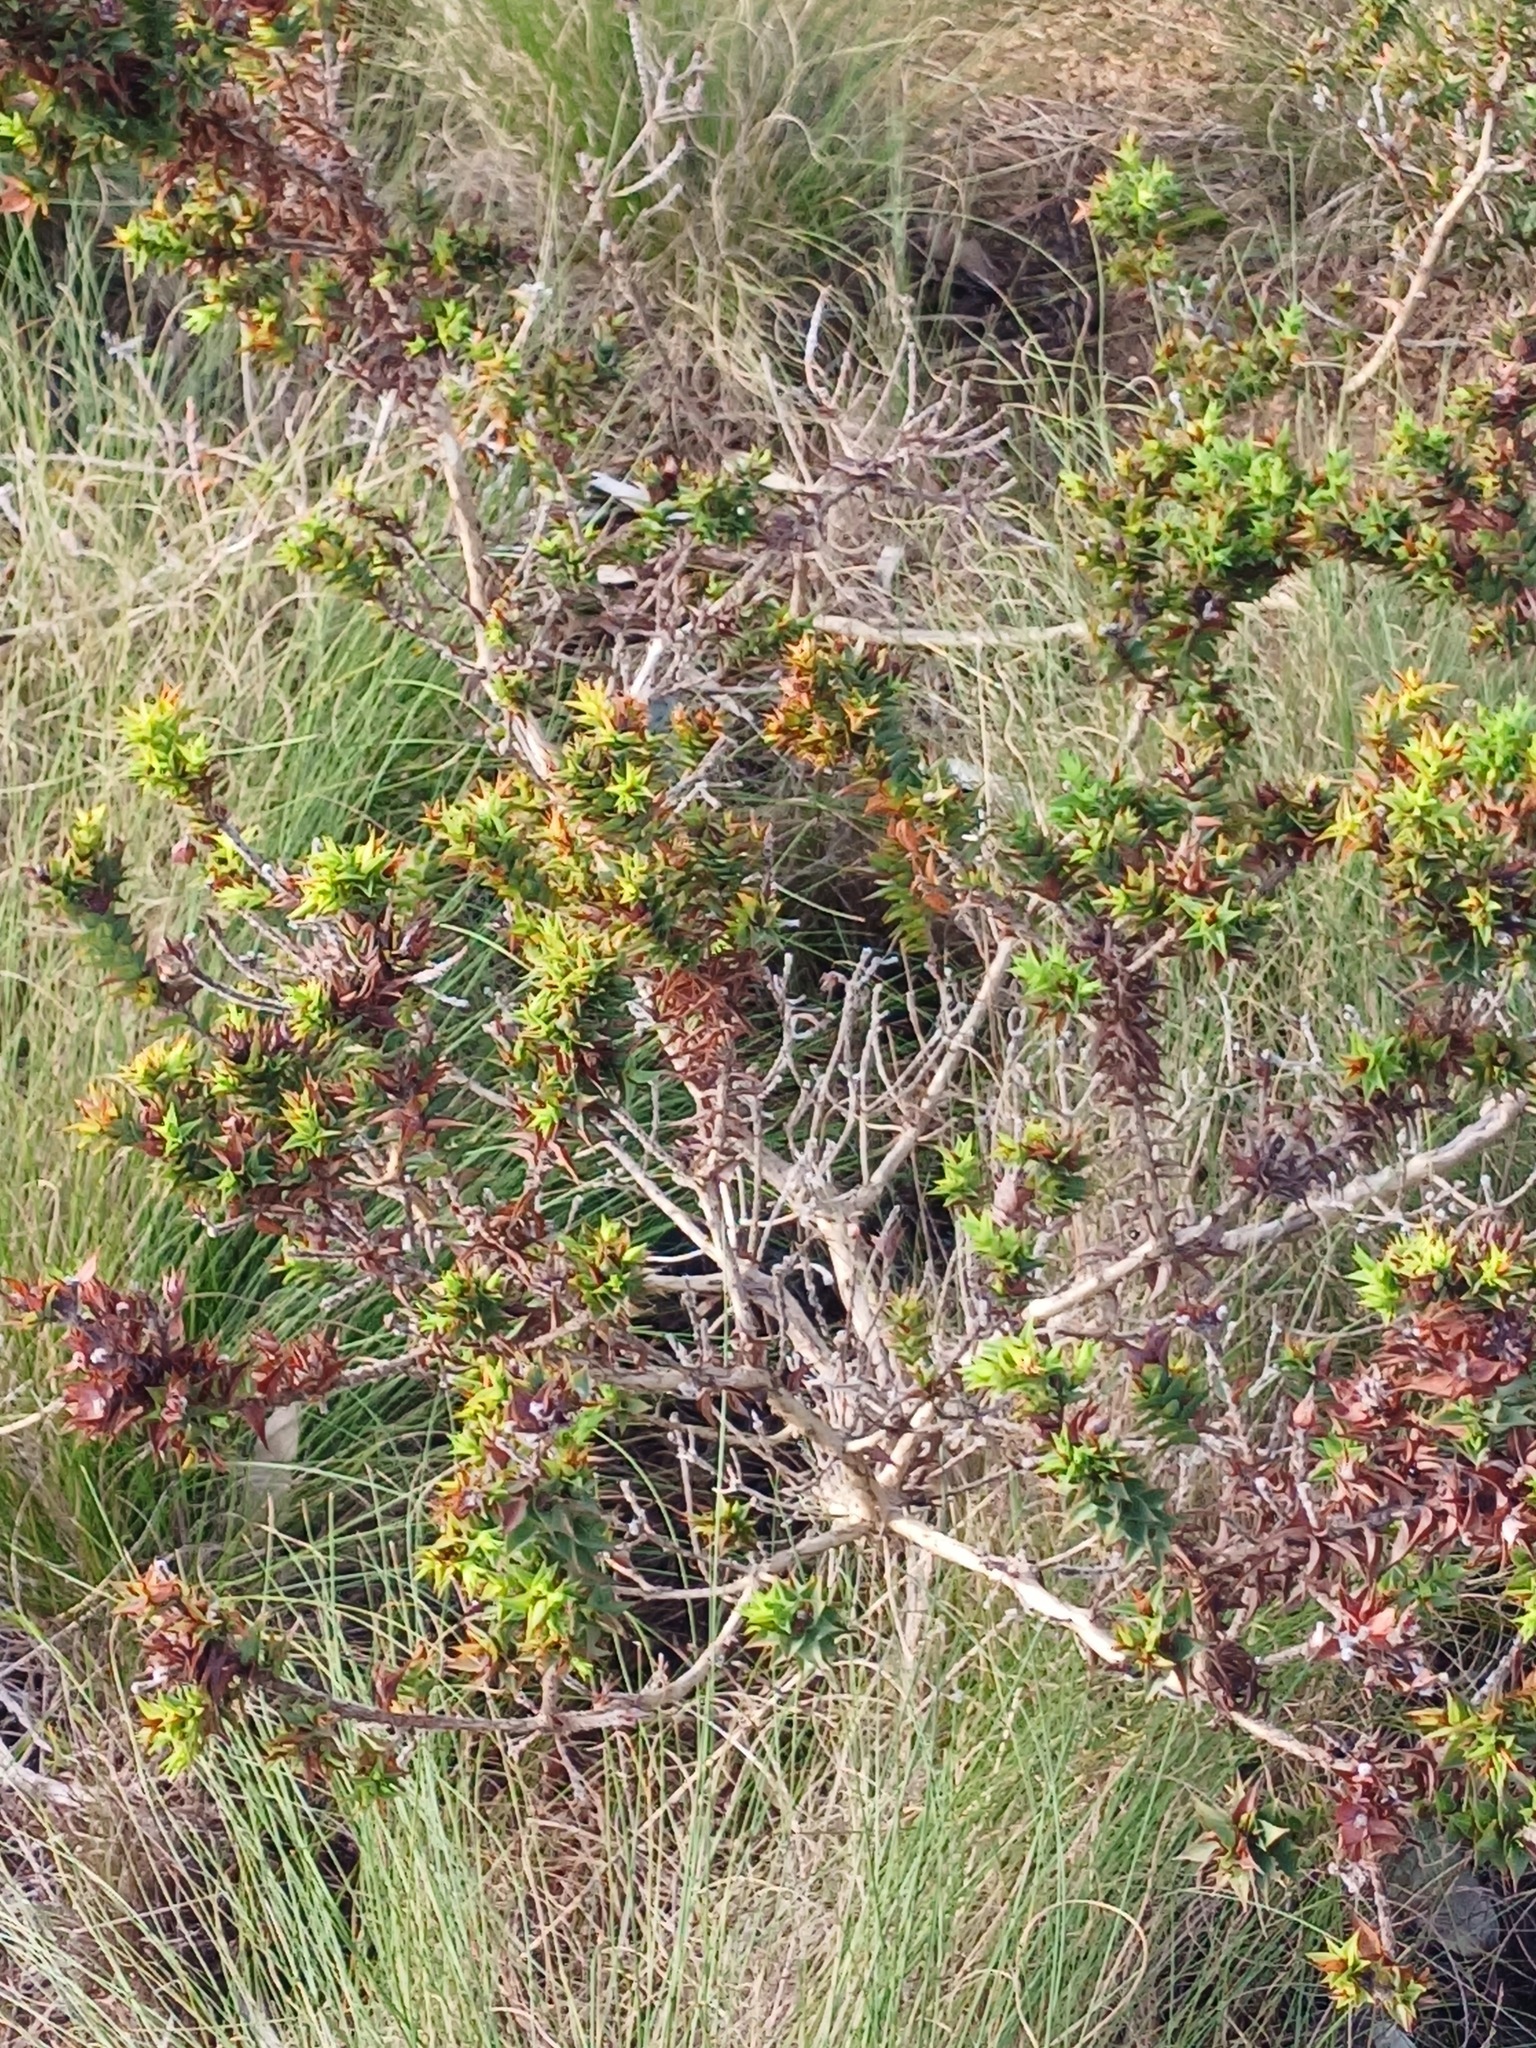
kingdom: Plantae
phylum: Tracheophyta
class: Magnoliopsida
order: Fabales
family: Fabaceae
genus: Aspalathus
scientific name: Aspalathus cordata
